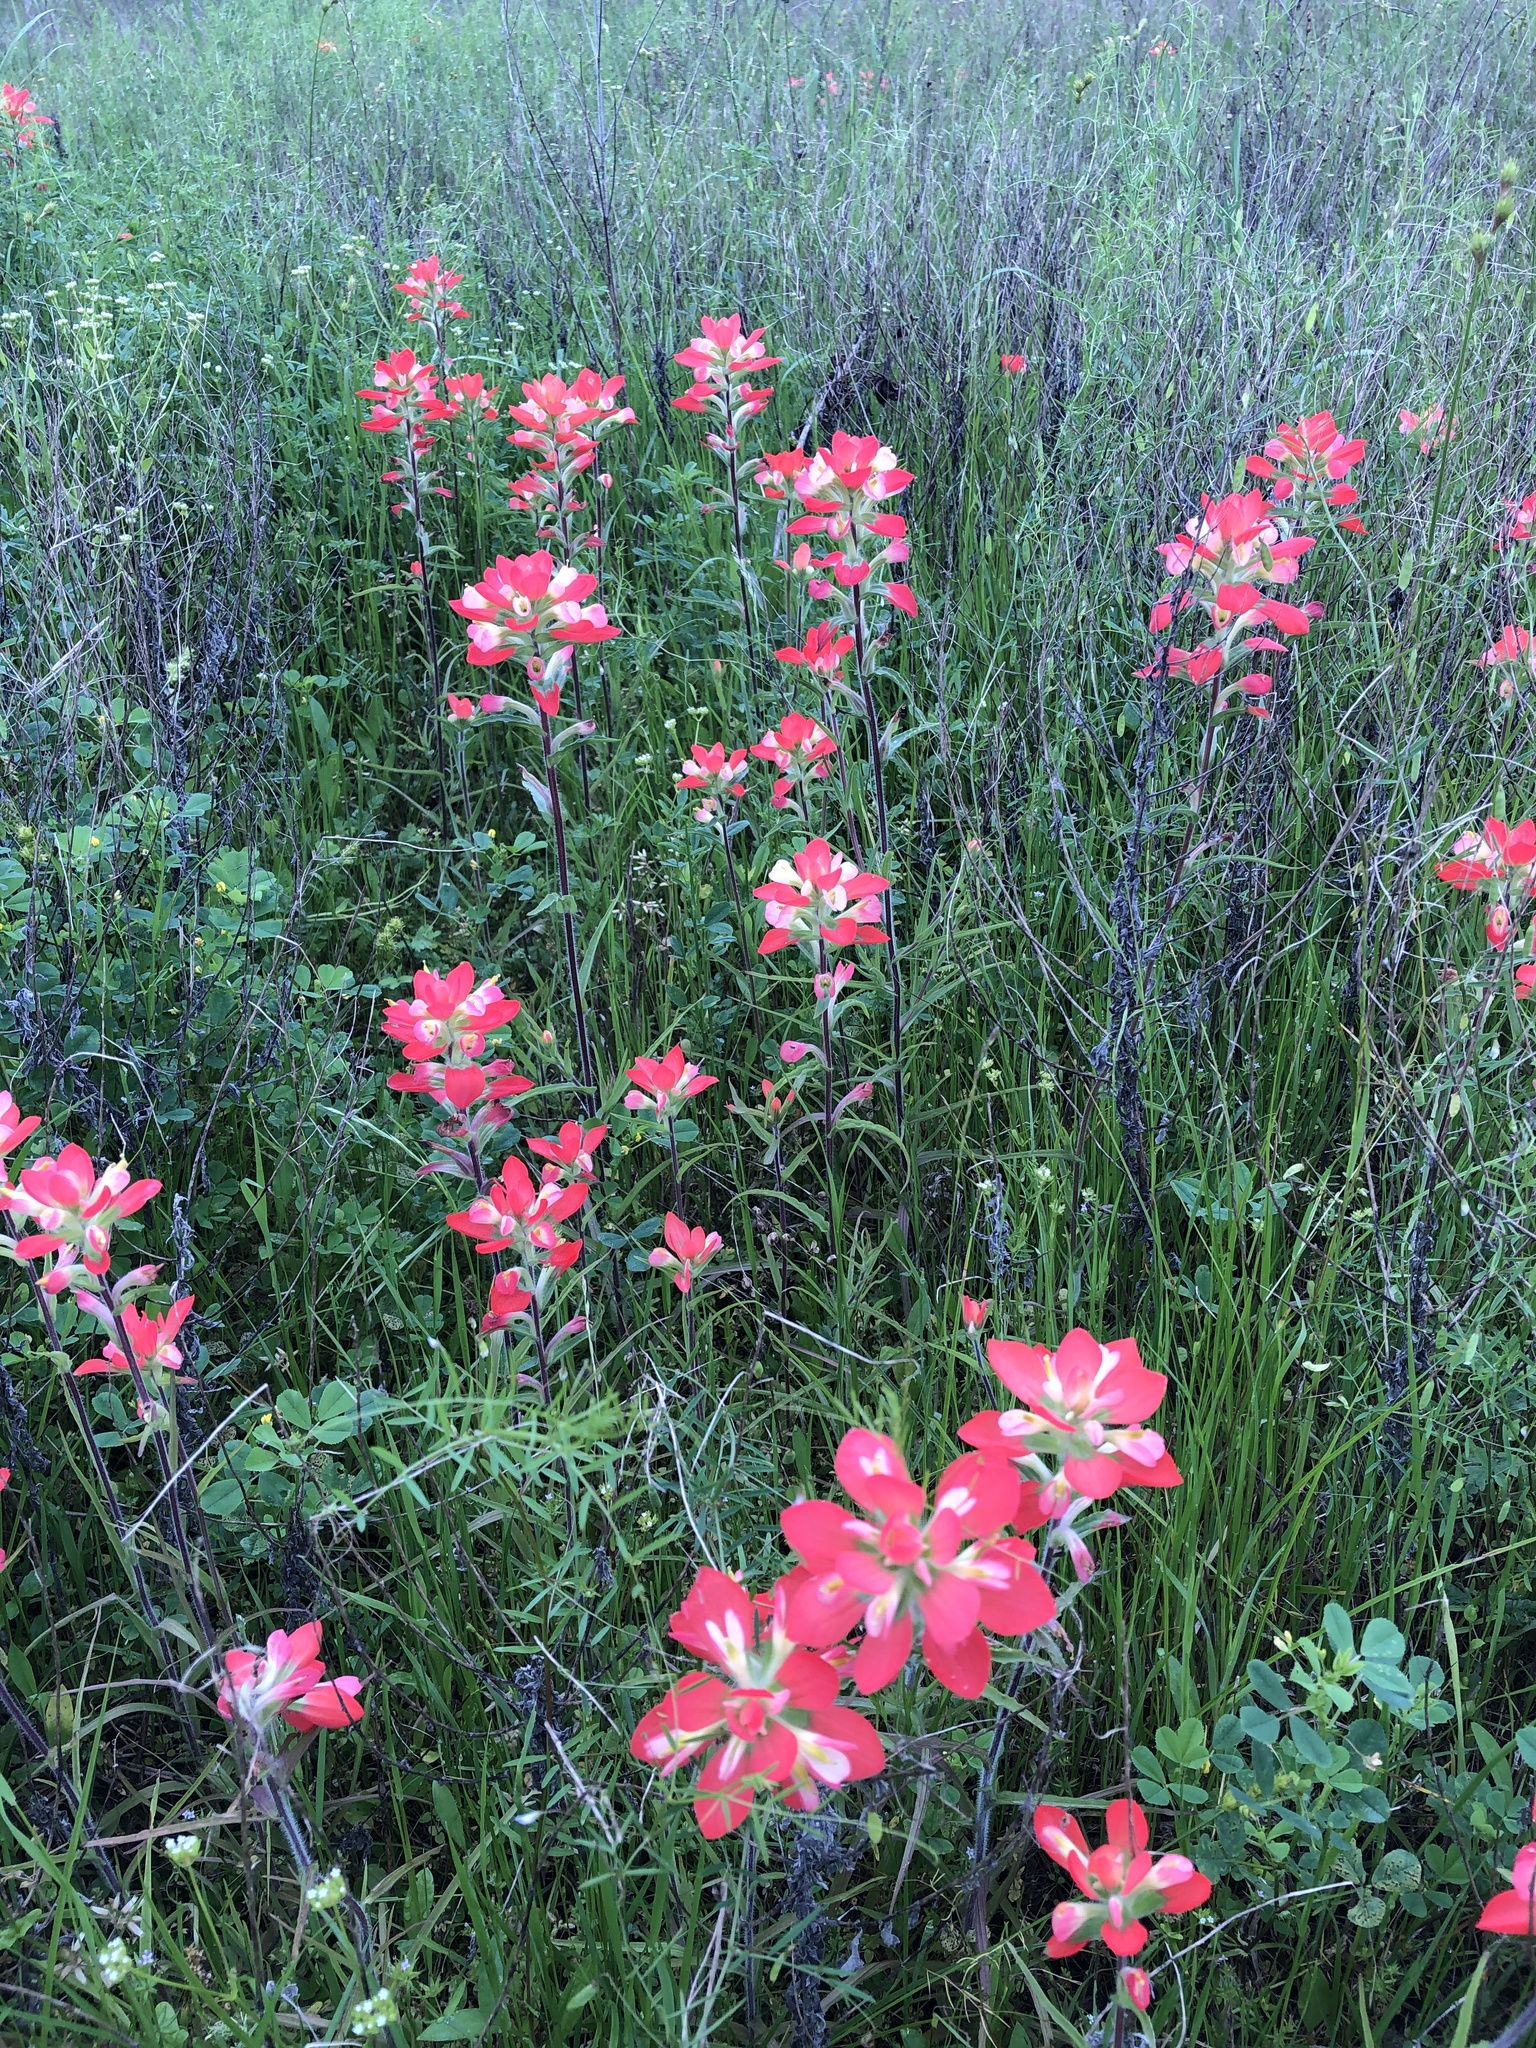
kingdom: Plantae
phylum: Tracheophyta
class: Magnoliopsida
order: Lamiales
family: Orobanchaceae
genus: Castilleja
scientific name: Castilleja indivisa
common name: Texas paintbrush
